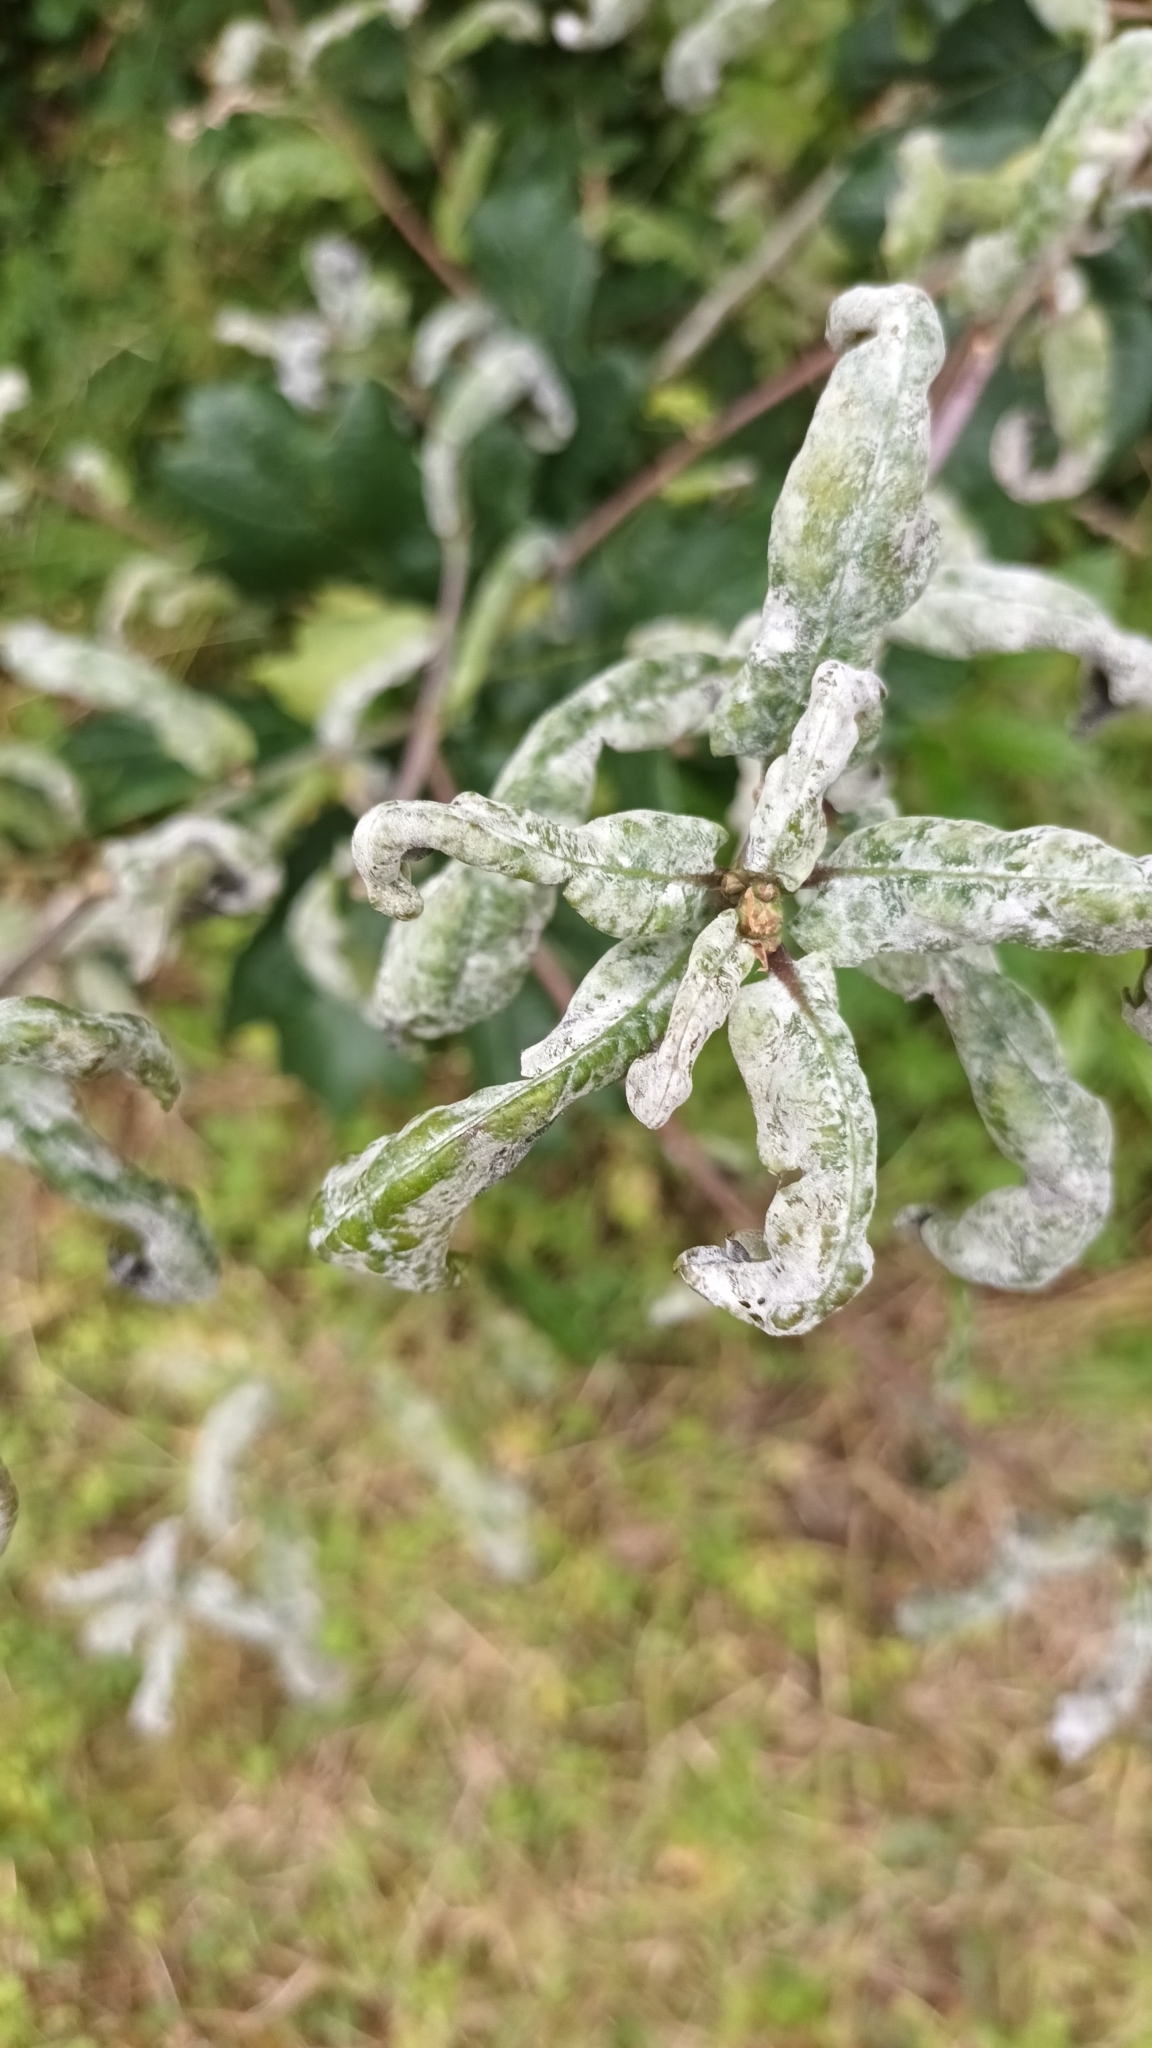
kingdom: Fungi
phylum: Ascomycota
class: Leotiomycetes
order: Helotiales
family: Erysiphaceae
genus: Erysiphe
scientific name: Erysiphe alphitoides
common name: Oak mildew
